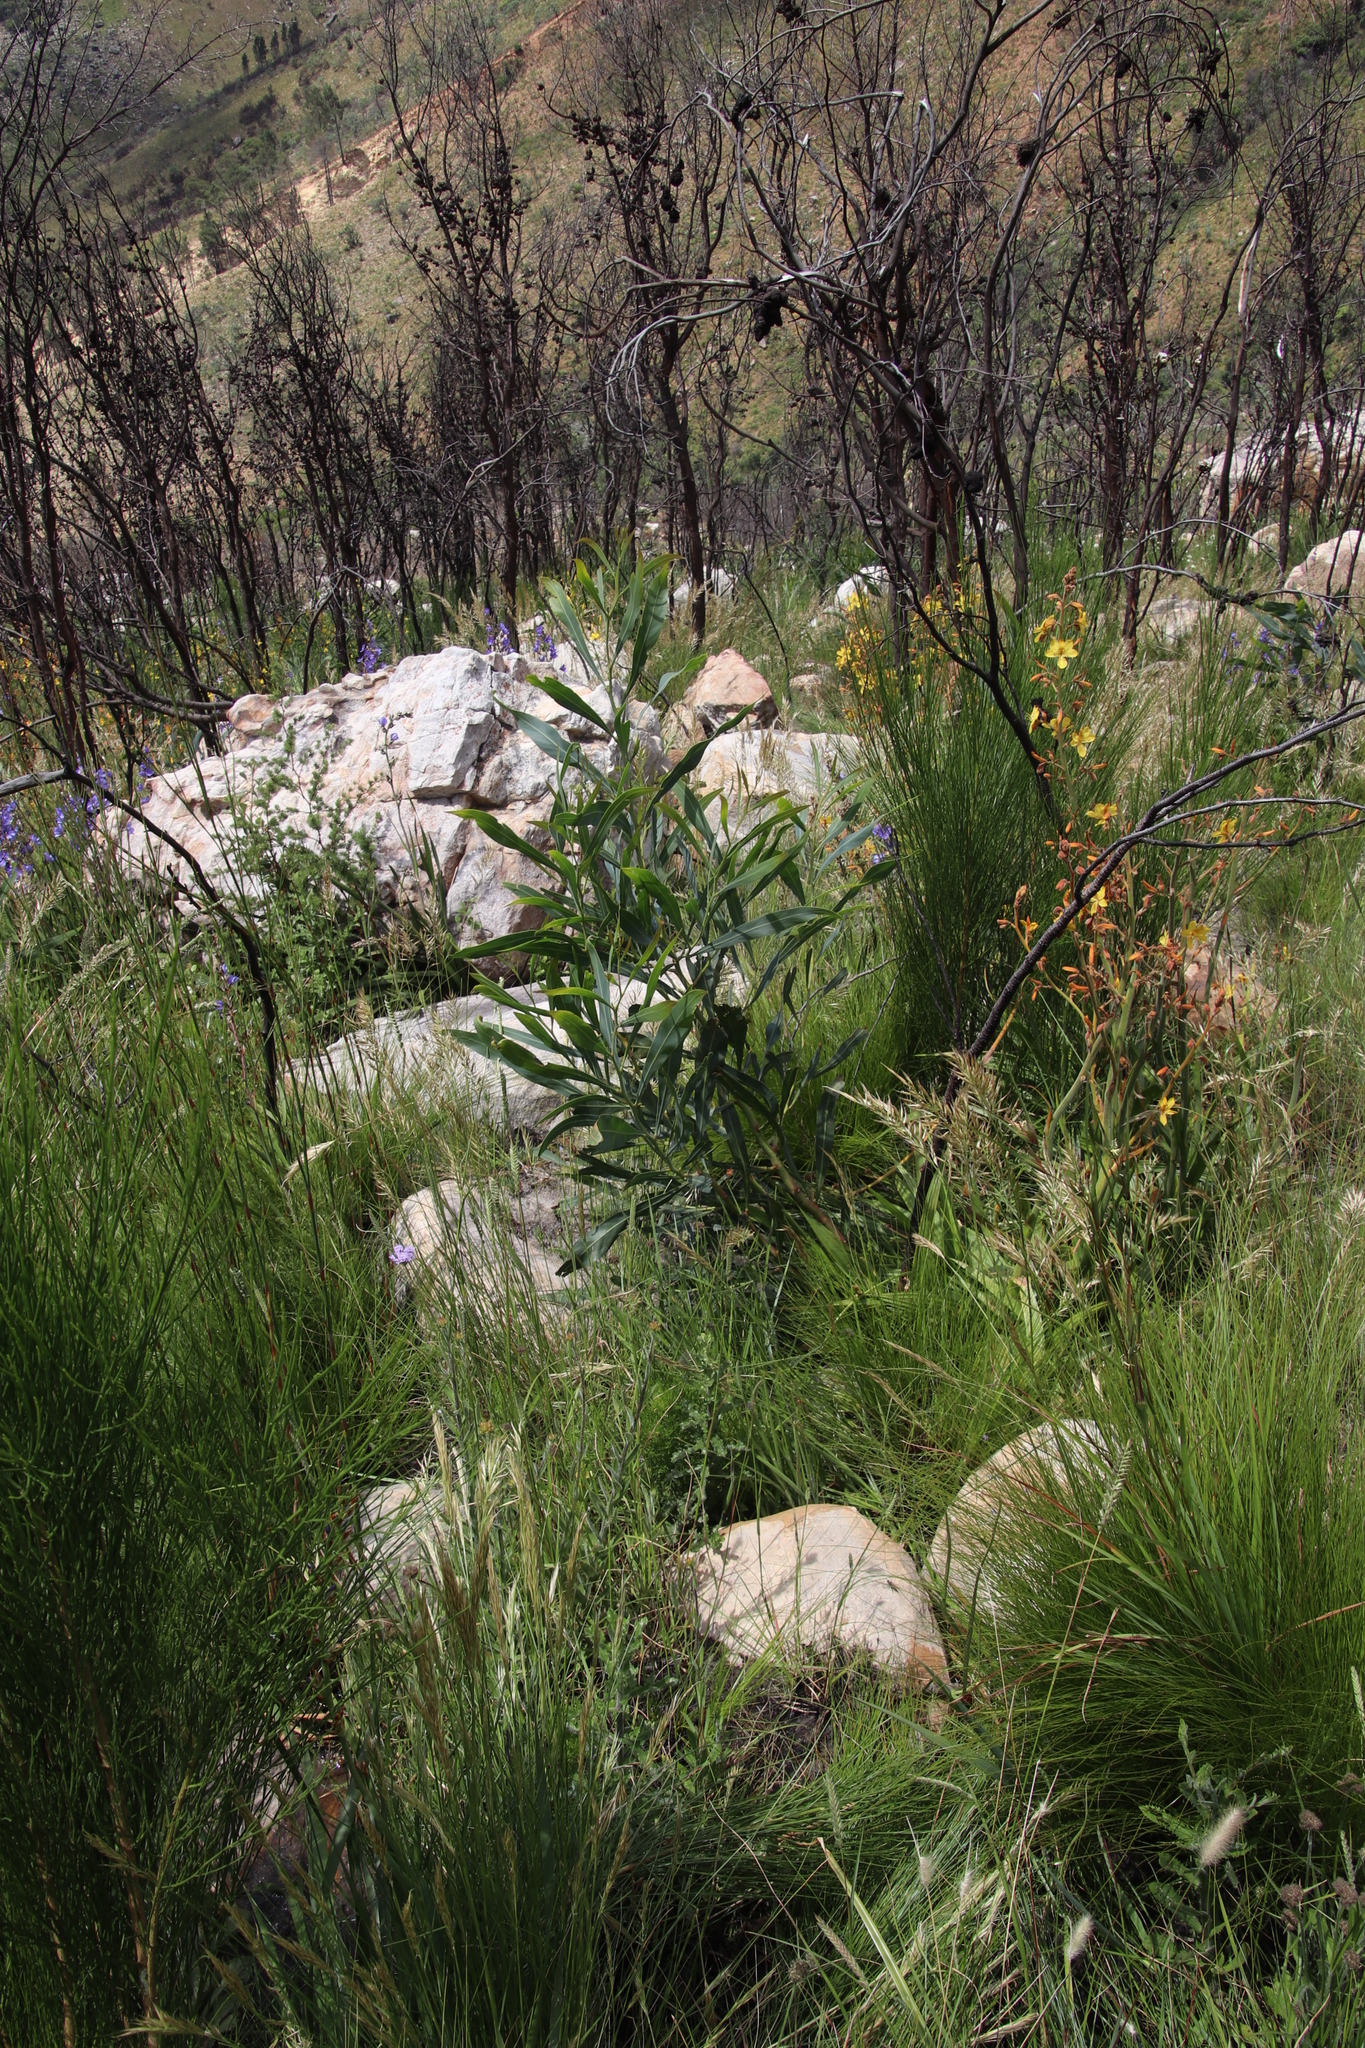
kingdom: Plantae
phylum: Tracheophyta
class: Magnoliopsida
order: Fabales
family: Fabaceae
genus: Acacia
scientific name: Acacia saligna
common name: Orange wattle
